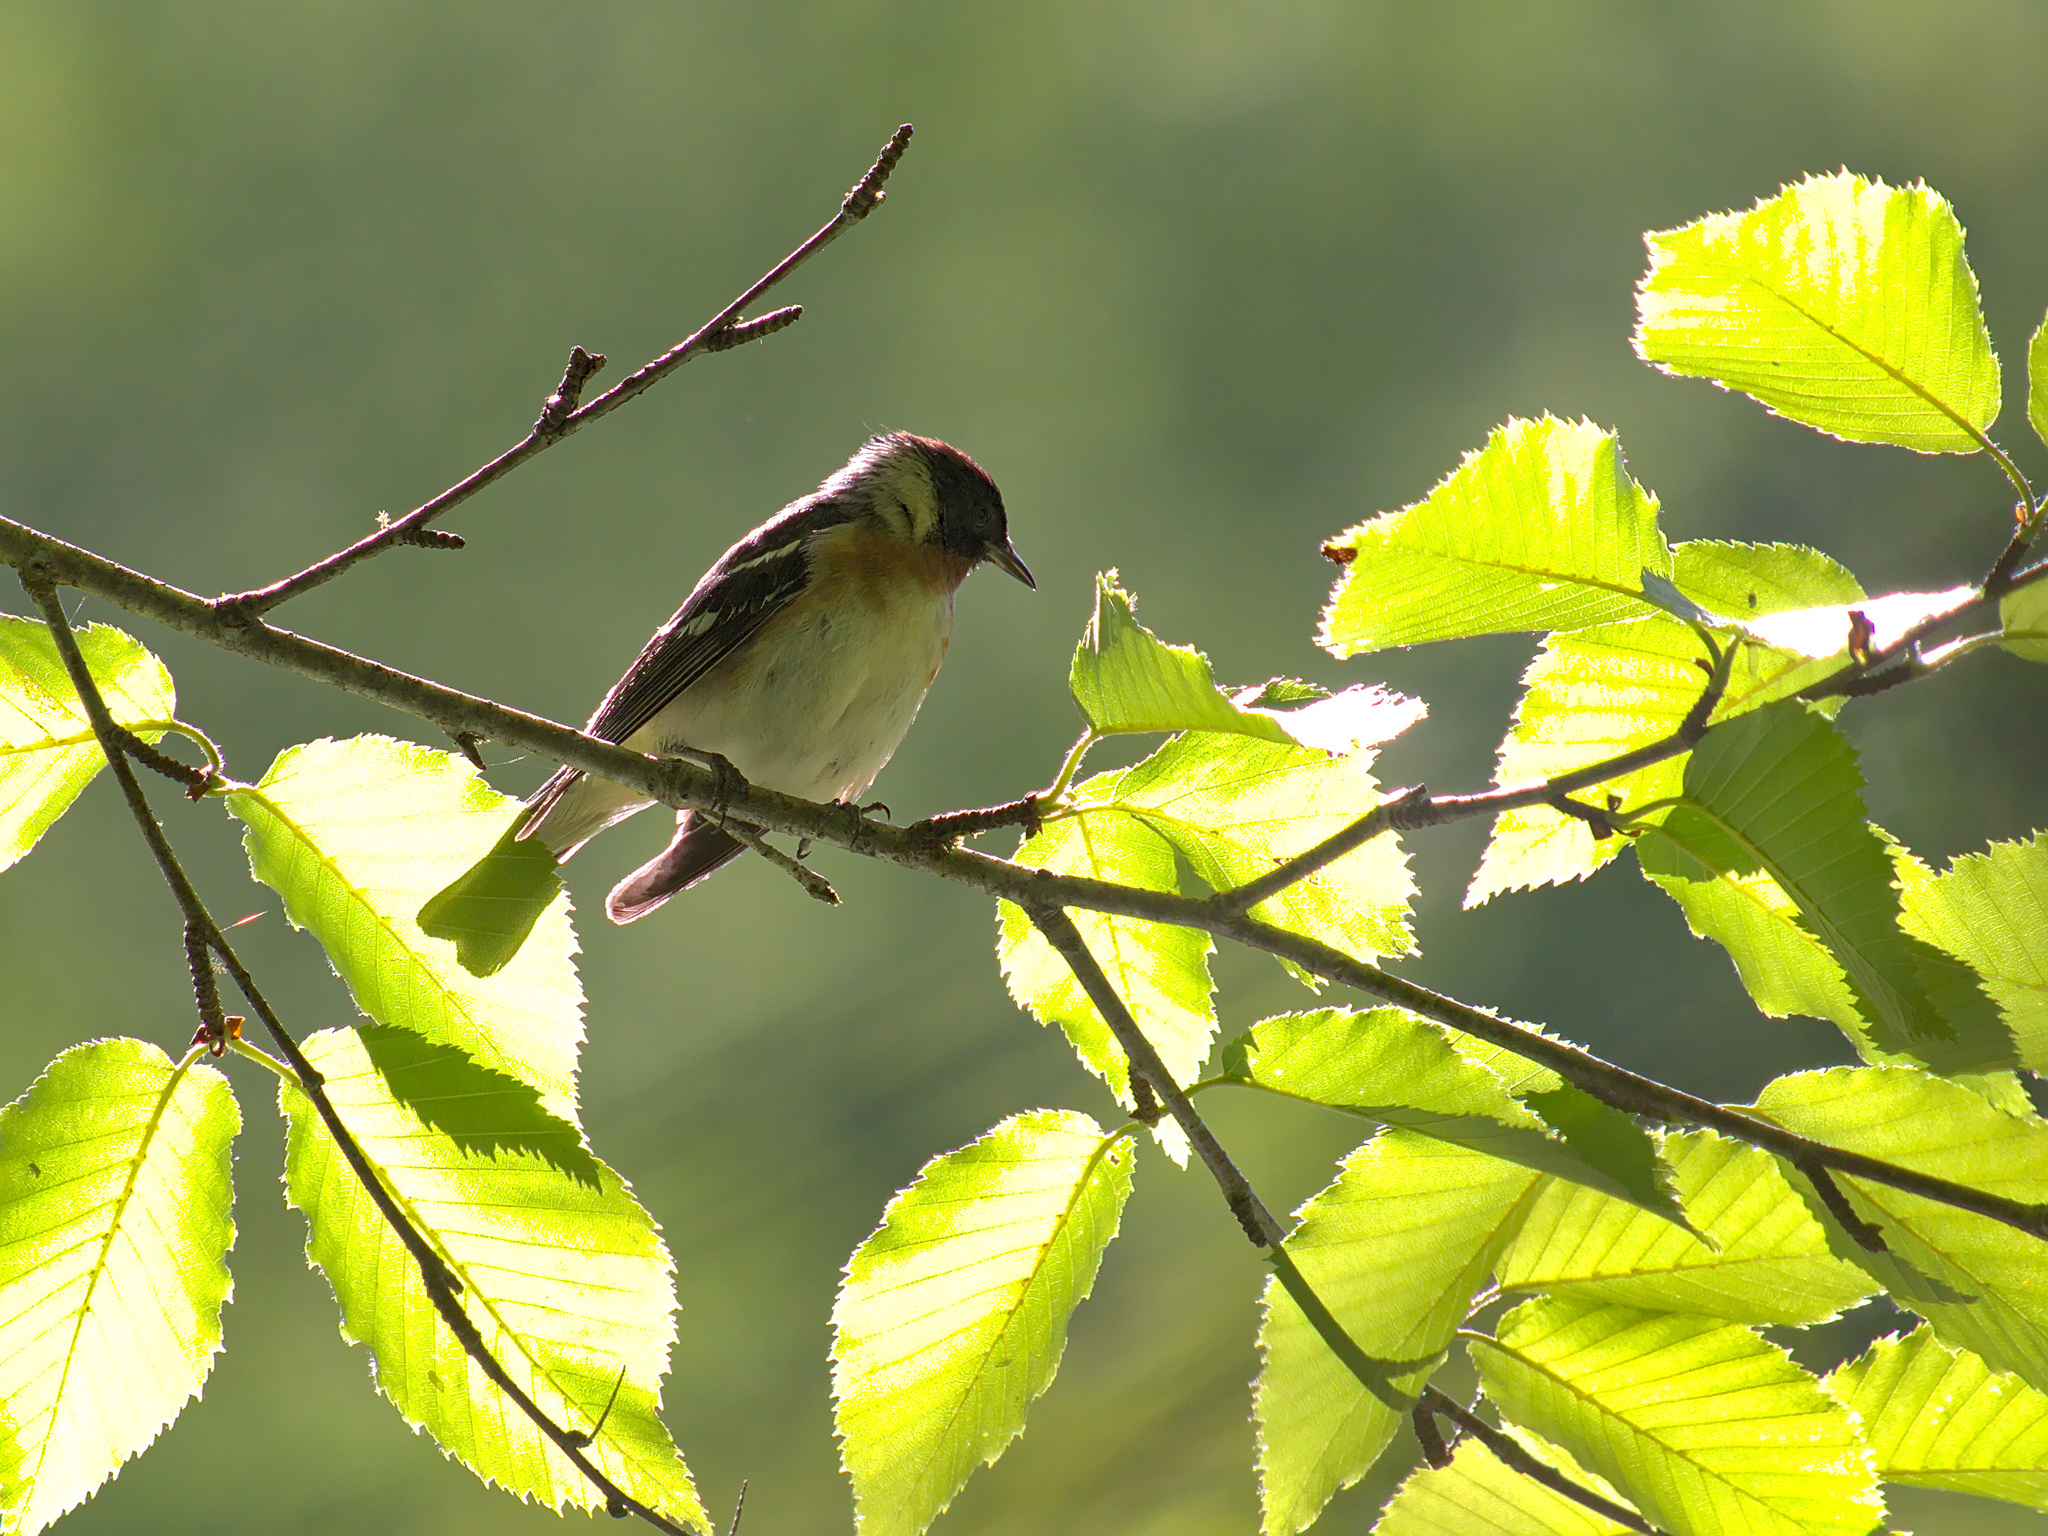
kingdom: Animalia
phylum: Chordata
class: Aves
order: Passeriformes
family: Parulidae
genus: Setophaga
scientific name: Setophaga castanea
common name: Bay-breasted warbler
